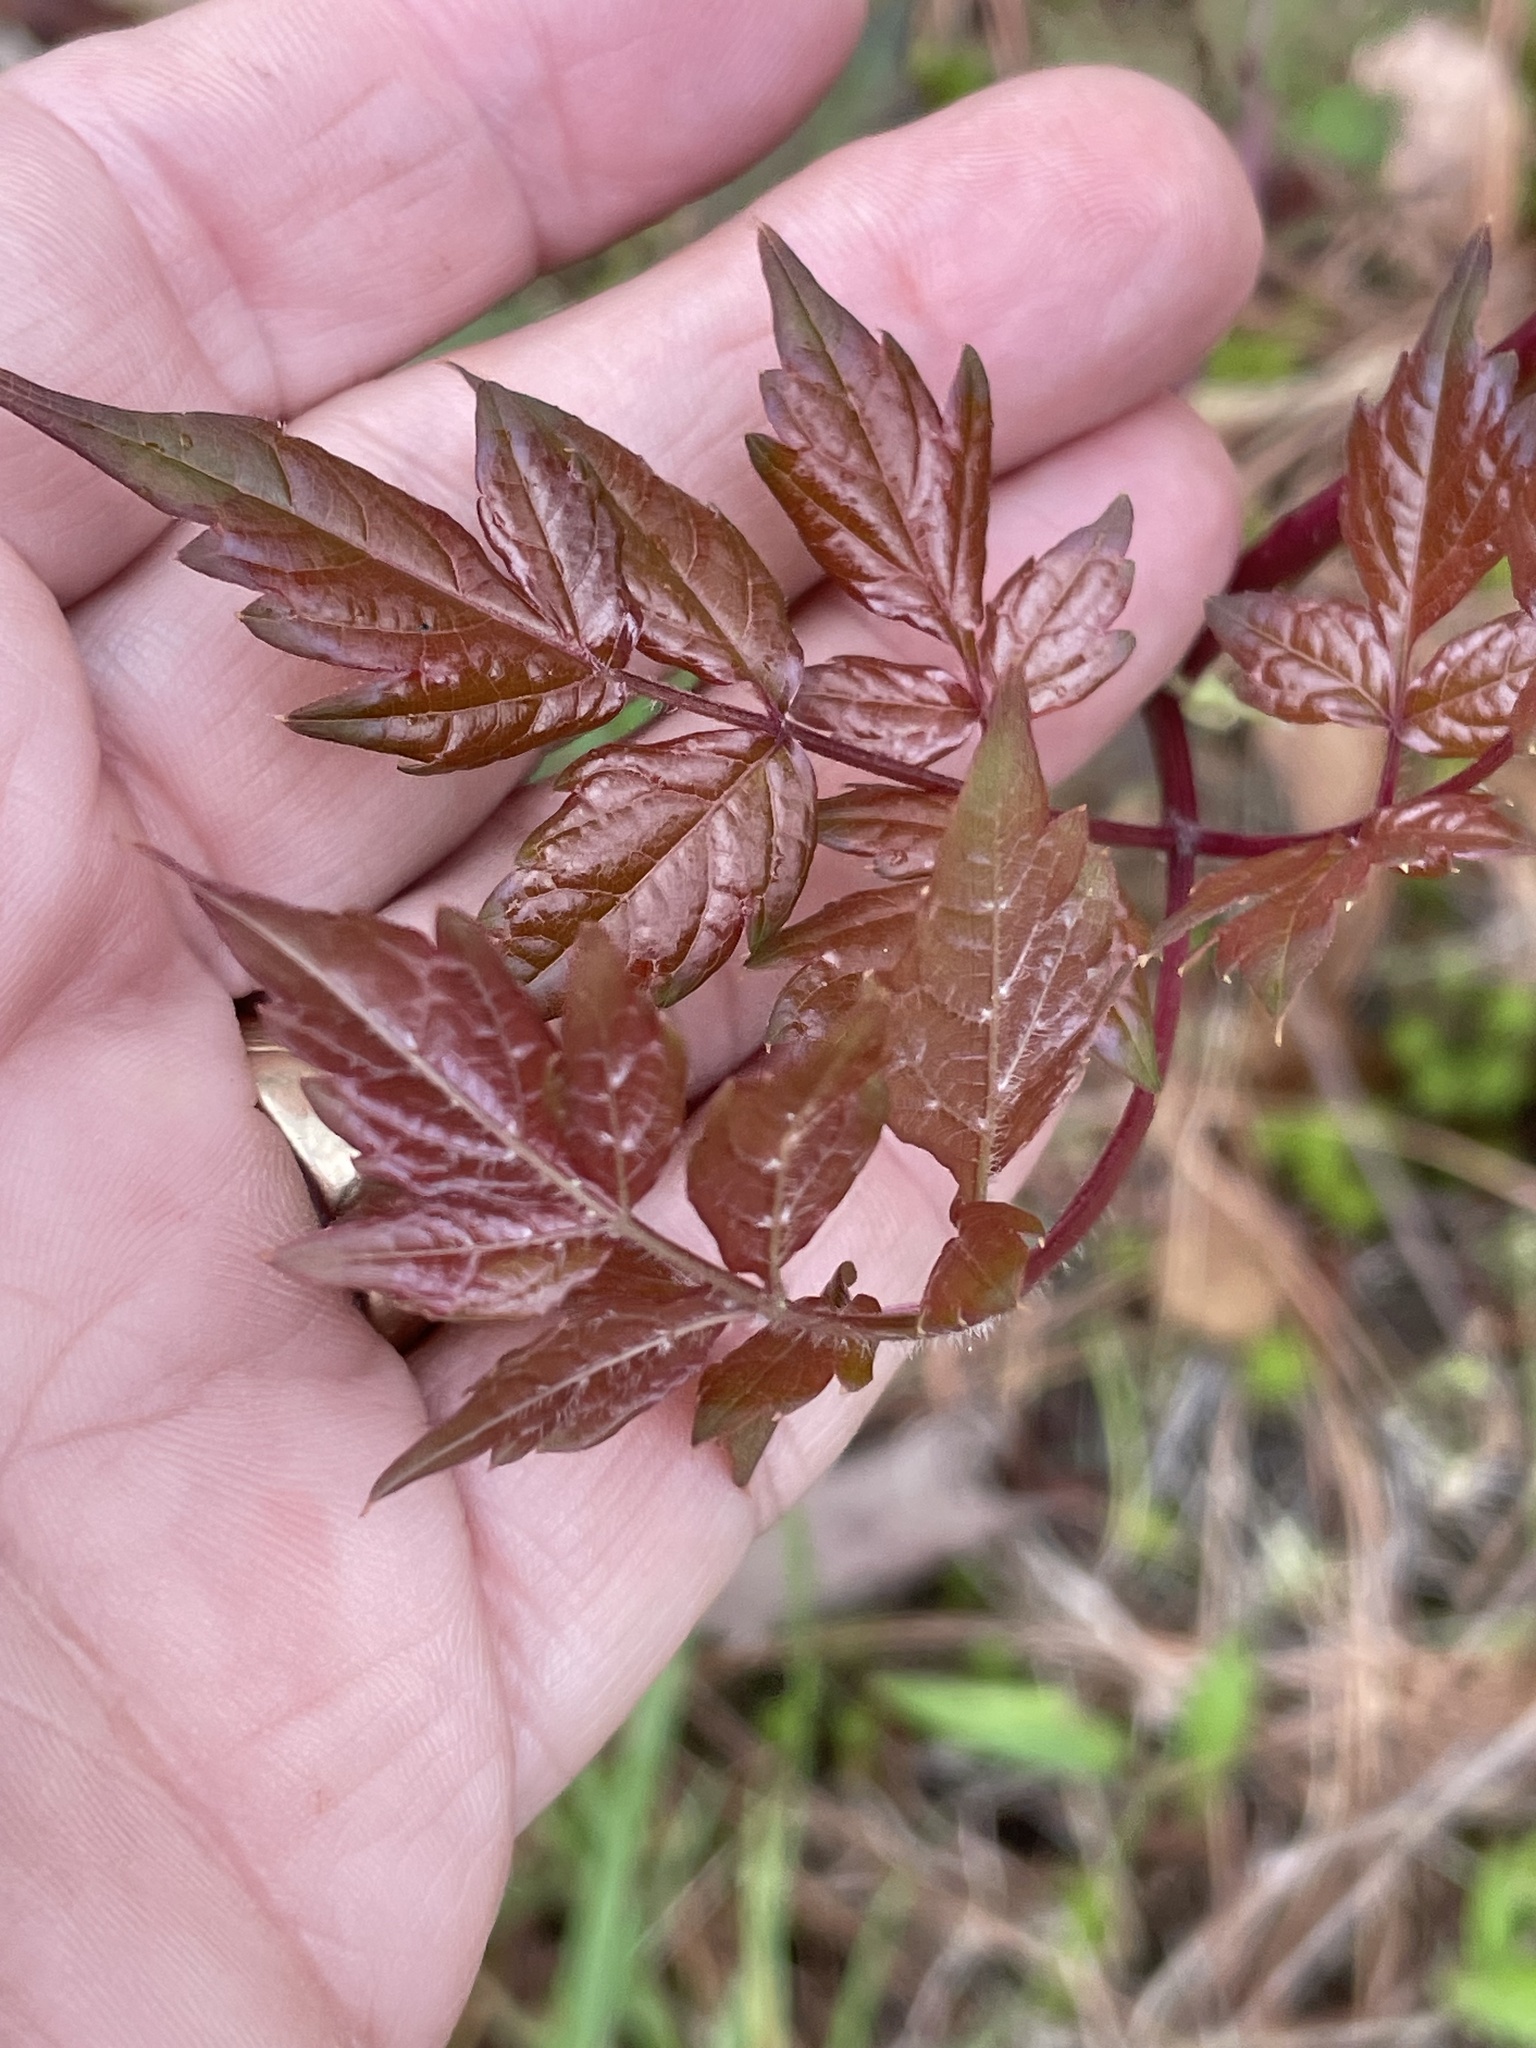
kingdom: Plantae
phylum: Tracheophyta
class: Magnoliopsida
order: Vitales
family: Vitaceae
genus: Nekemias
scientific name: Nekemias arborea
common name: Peppervine
